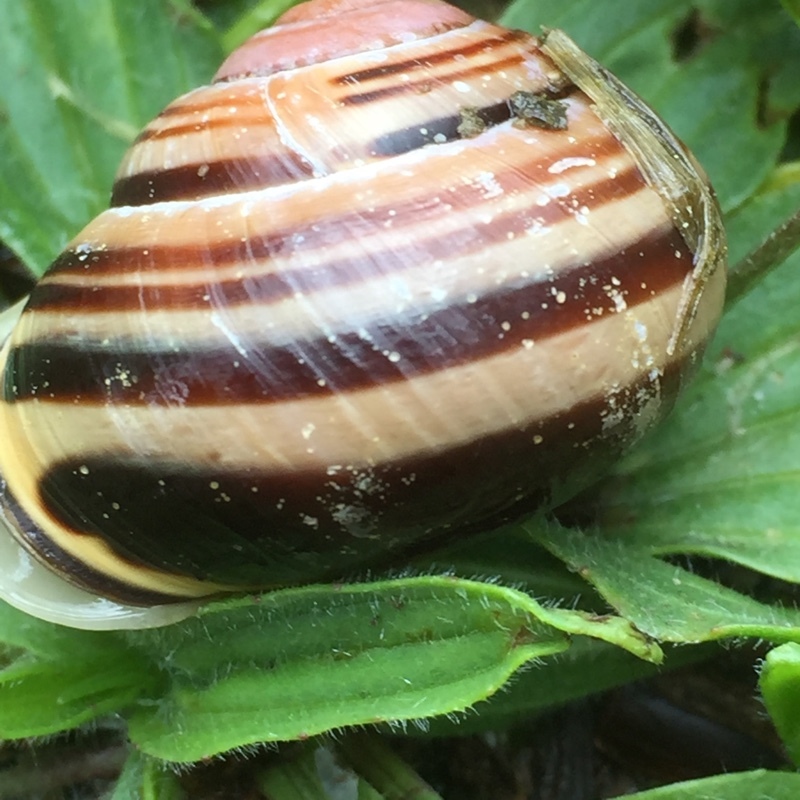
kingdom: Animalia
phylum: Mollusca
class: Gastropoda
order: Stylommatophora
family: Helicidae
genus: Cepaea
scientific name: Cepaea nemoralis
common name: Grovesnail
